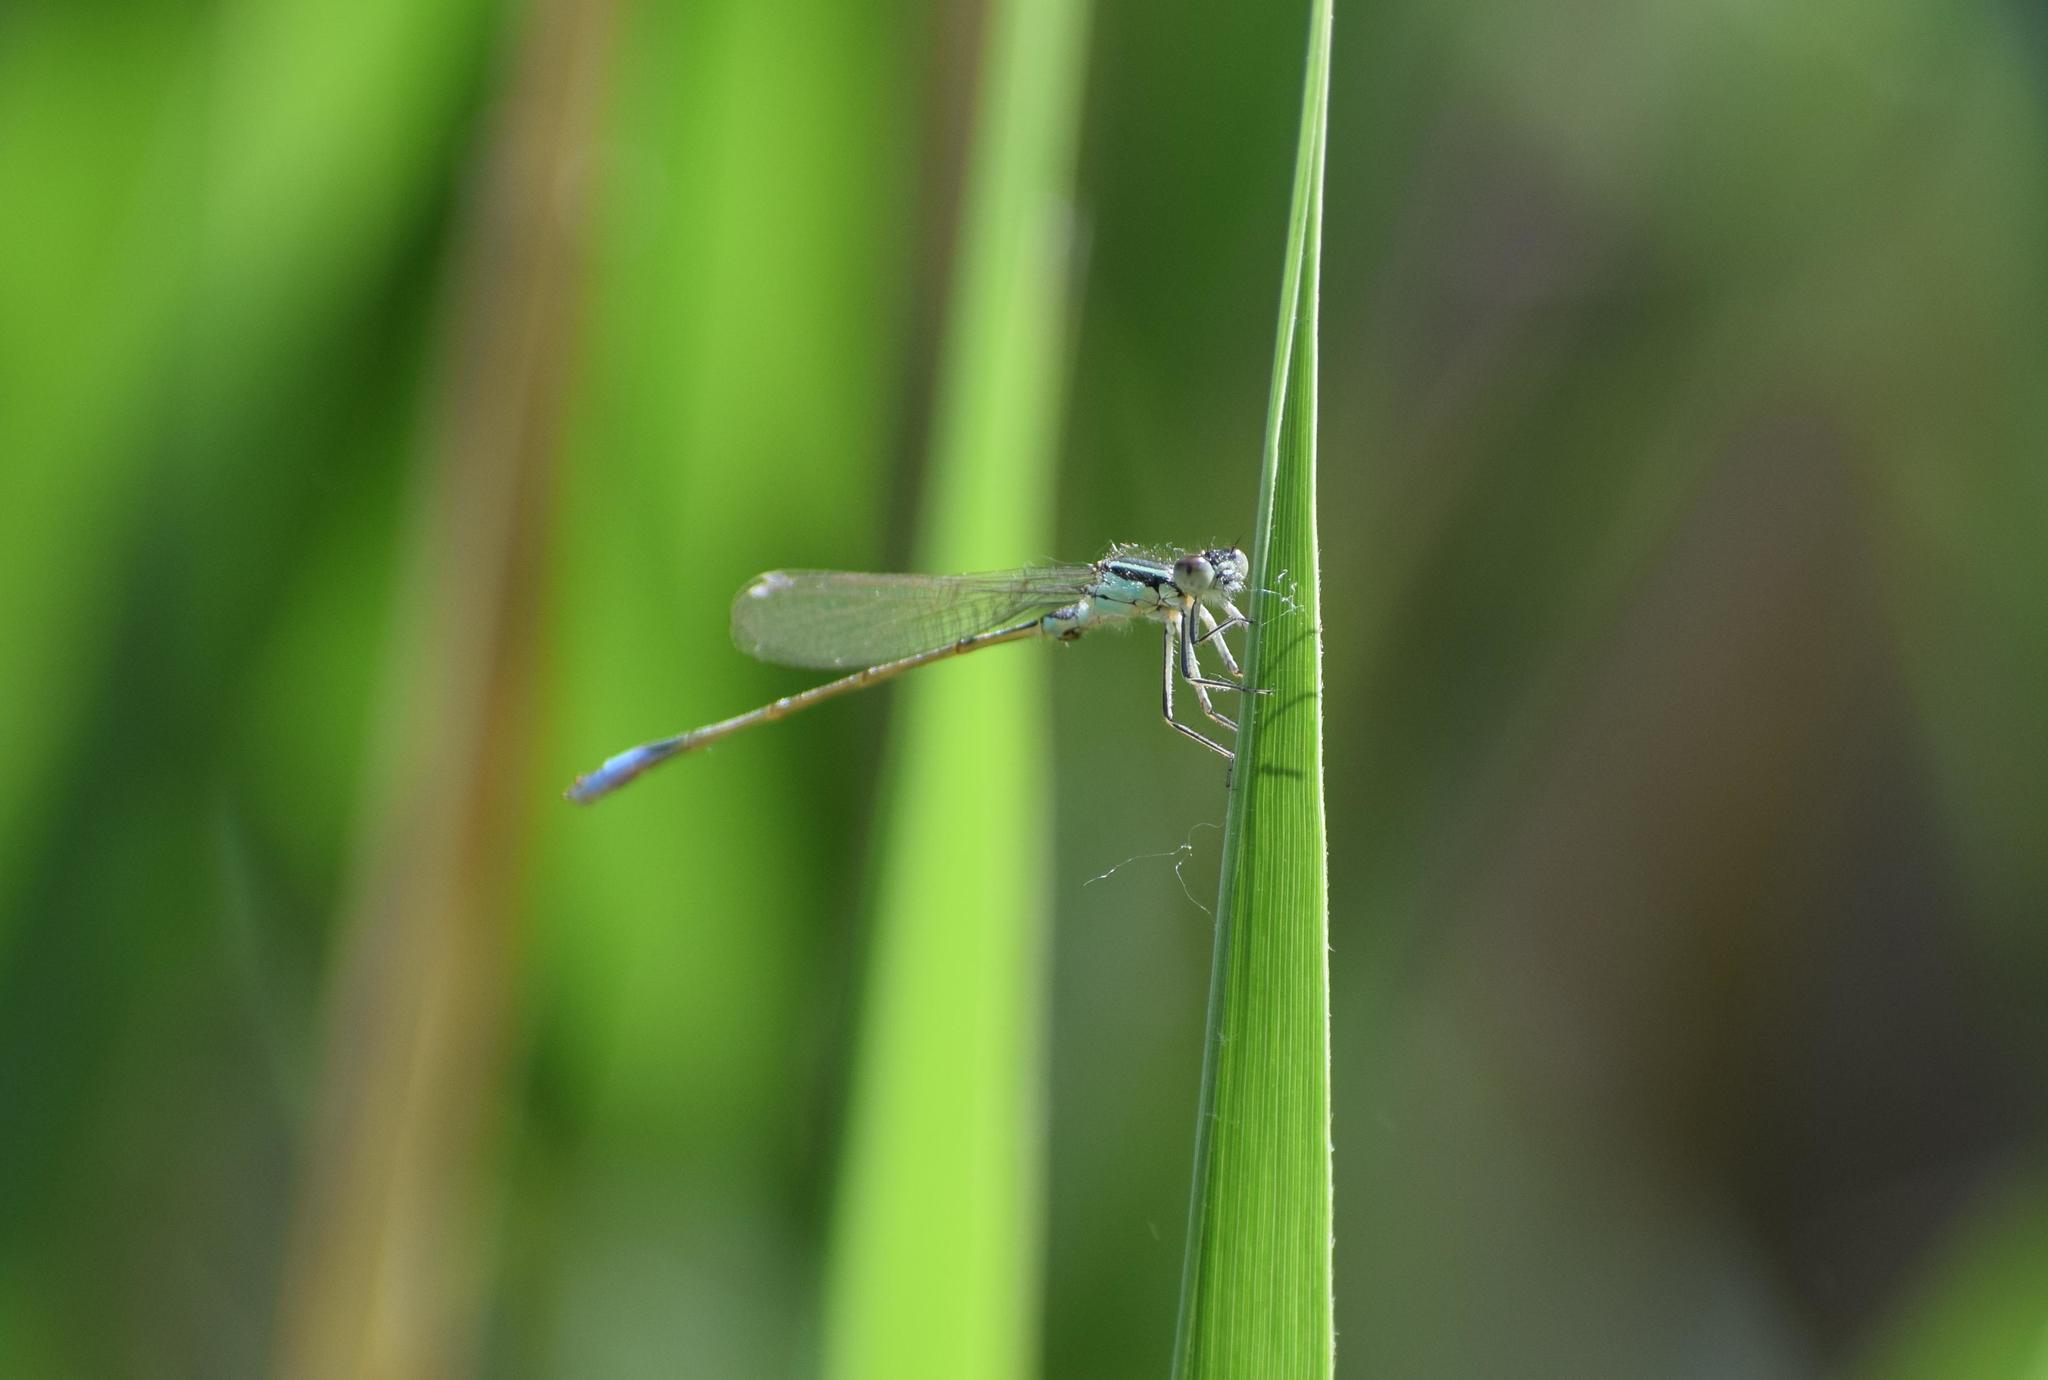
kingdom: Animalia
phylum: Arthropoda
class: Insecta
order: Odonata
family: Coenagrionidae
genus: Ischnura
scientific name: Ischnura elegans
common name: Blue-tailed damselfly
